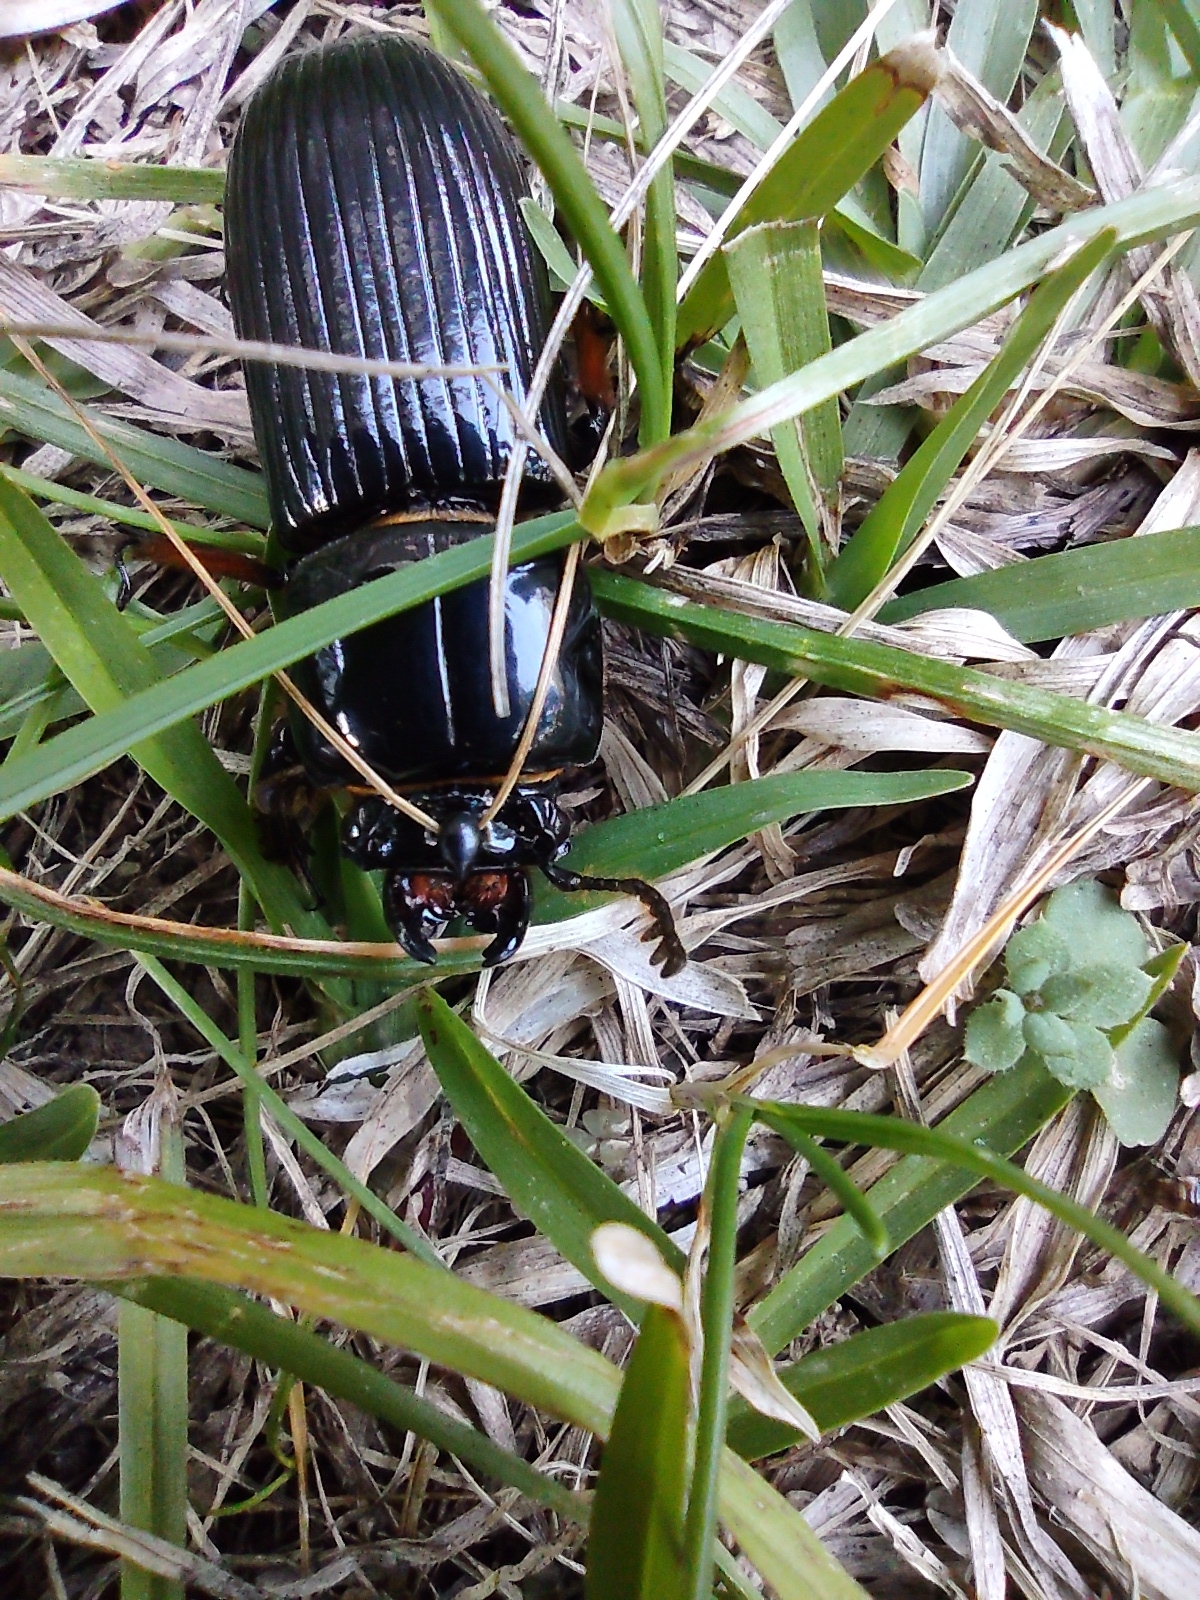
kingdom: Animalia
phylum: Arthropoda
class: Insecta
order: Coleoptera
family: Passalidae
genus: Odontotaenius
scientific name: Odontotaenius disjunctus
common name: Patent leather beetle
